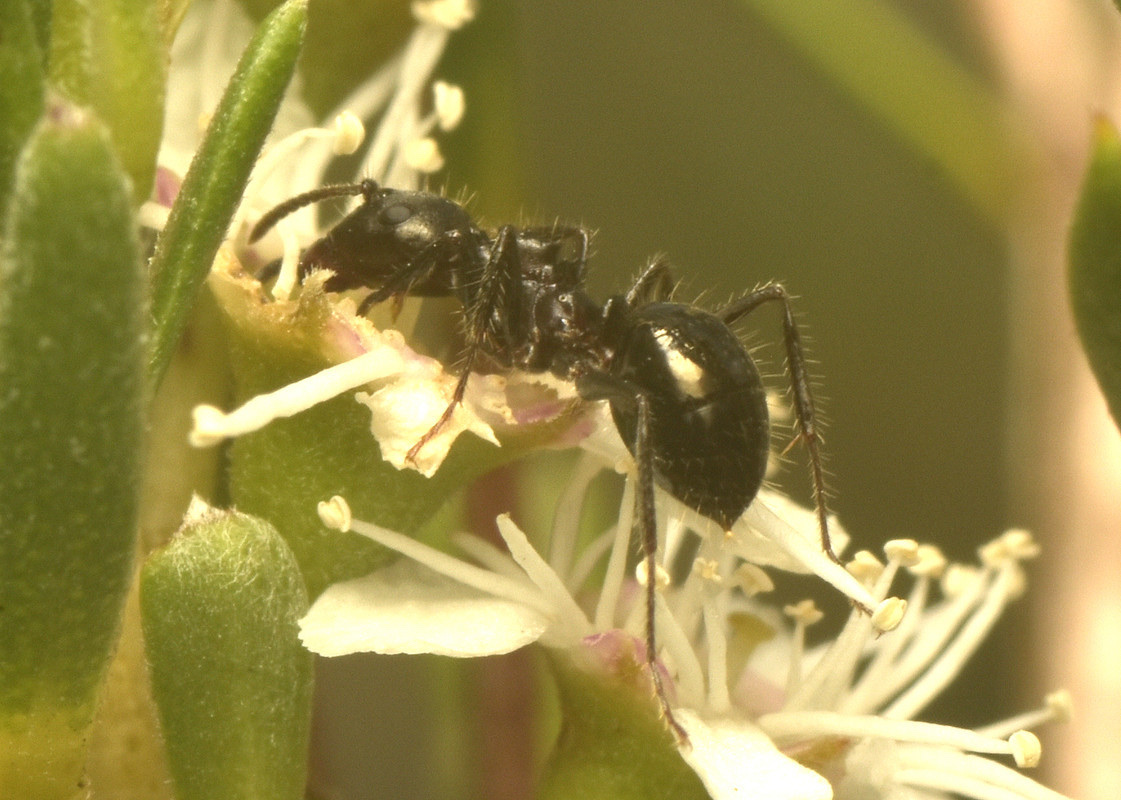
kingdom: Animalia
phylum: Arthropoda
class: Insecta
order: Hymenoptera
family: Formicidae
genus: Notoncus
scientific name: Notoncus ectatommoides
